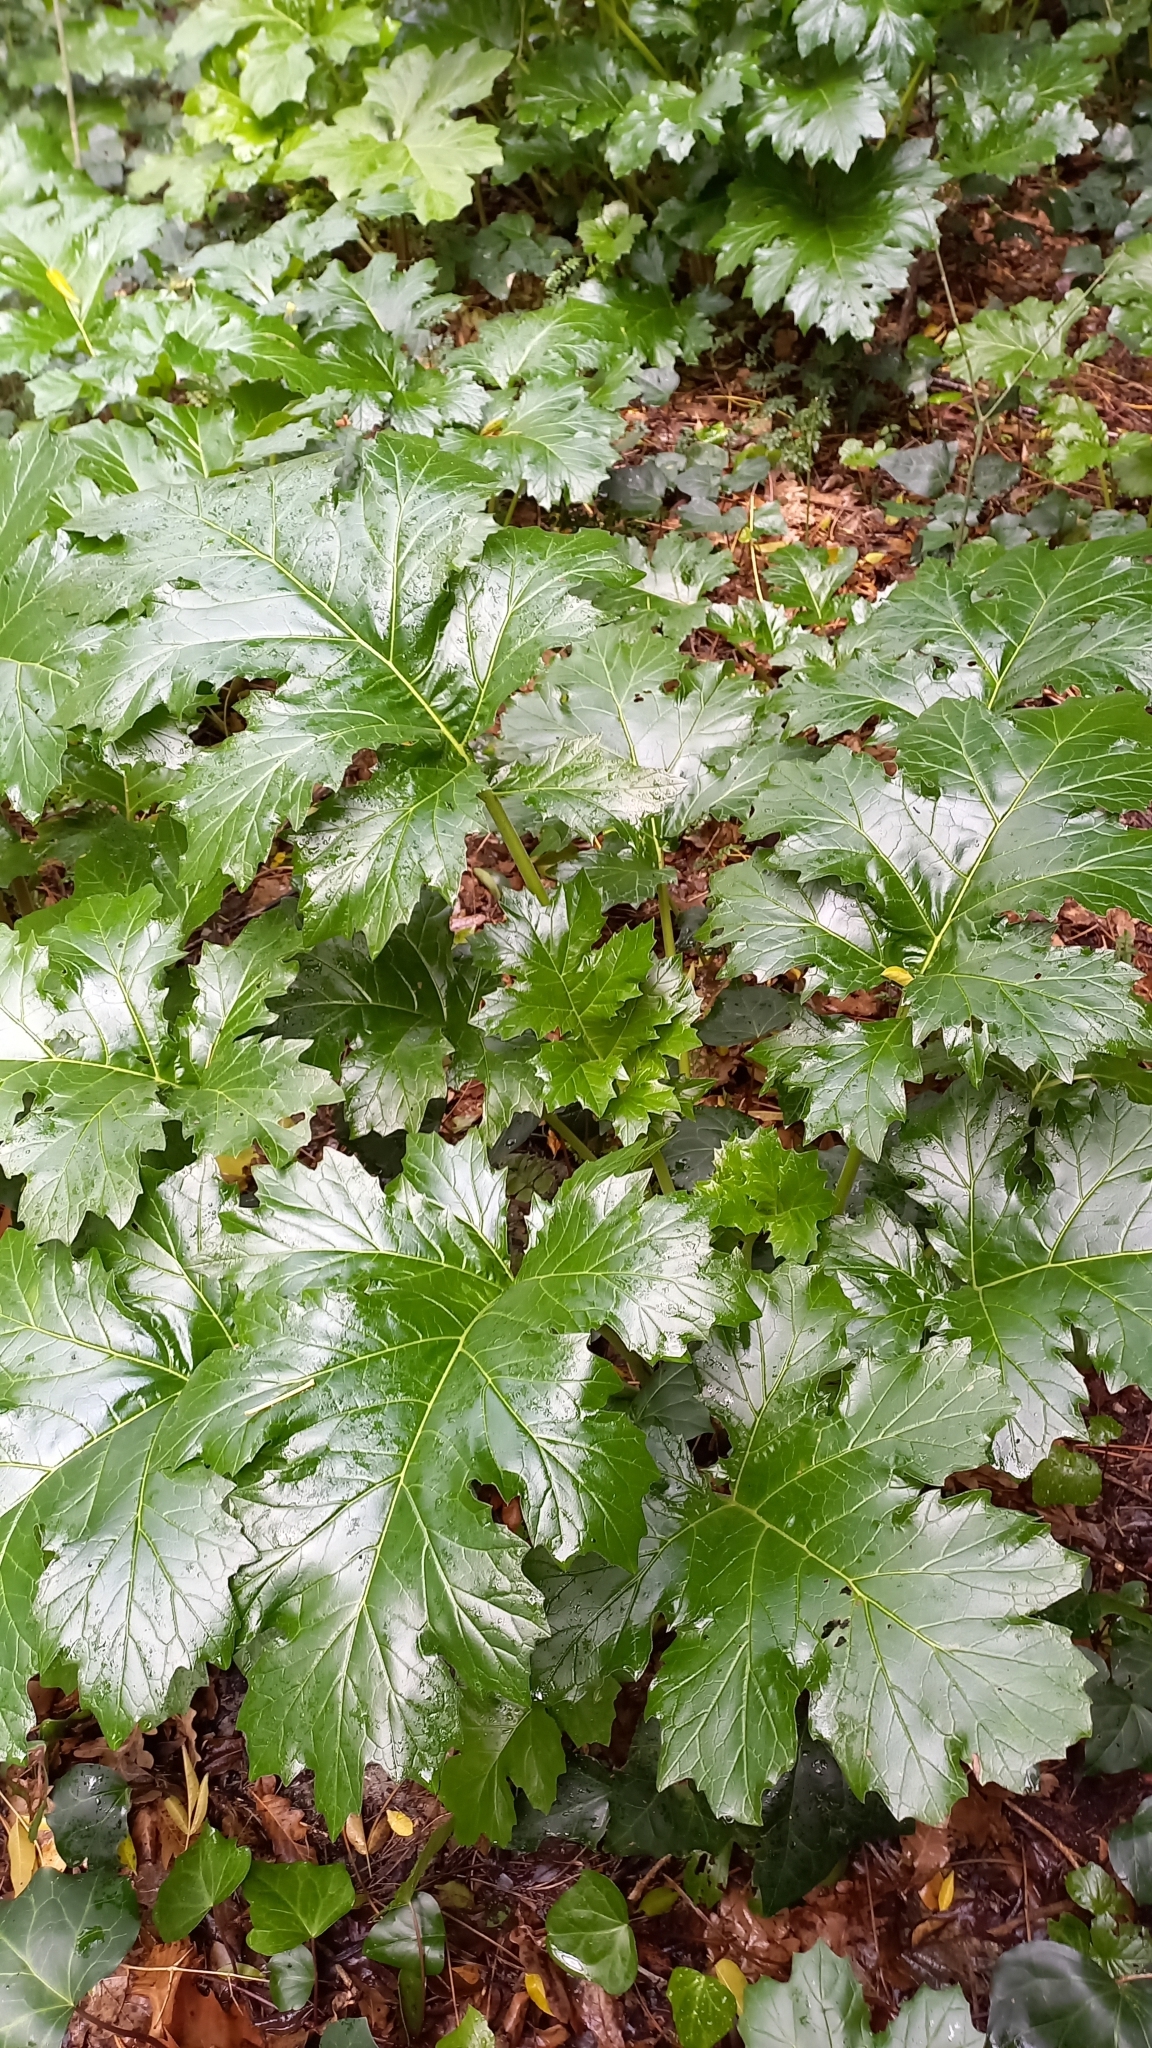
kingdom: Plantae
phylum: Tracheophyta
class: Magnoliopsida
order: Lamiales
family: Acanthaceae
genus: Acanthus
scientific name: Acanthus mollis
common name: Bear's-breech
